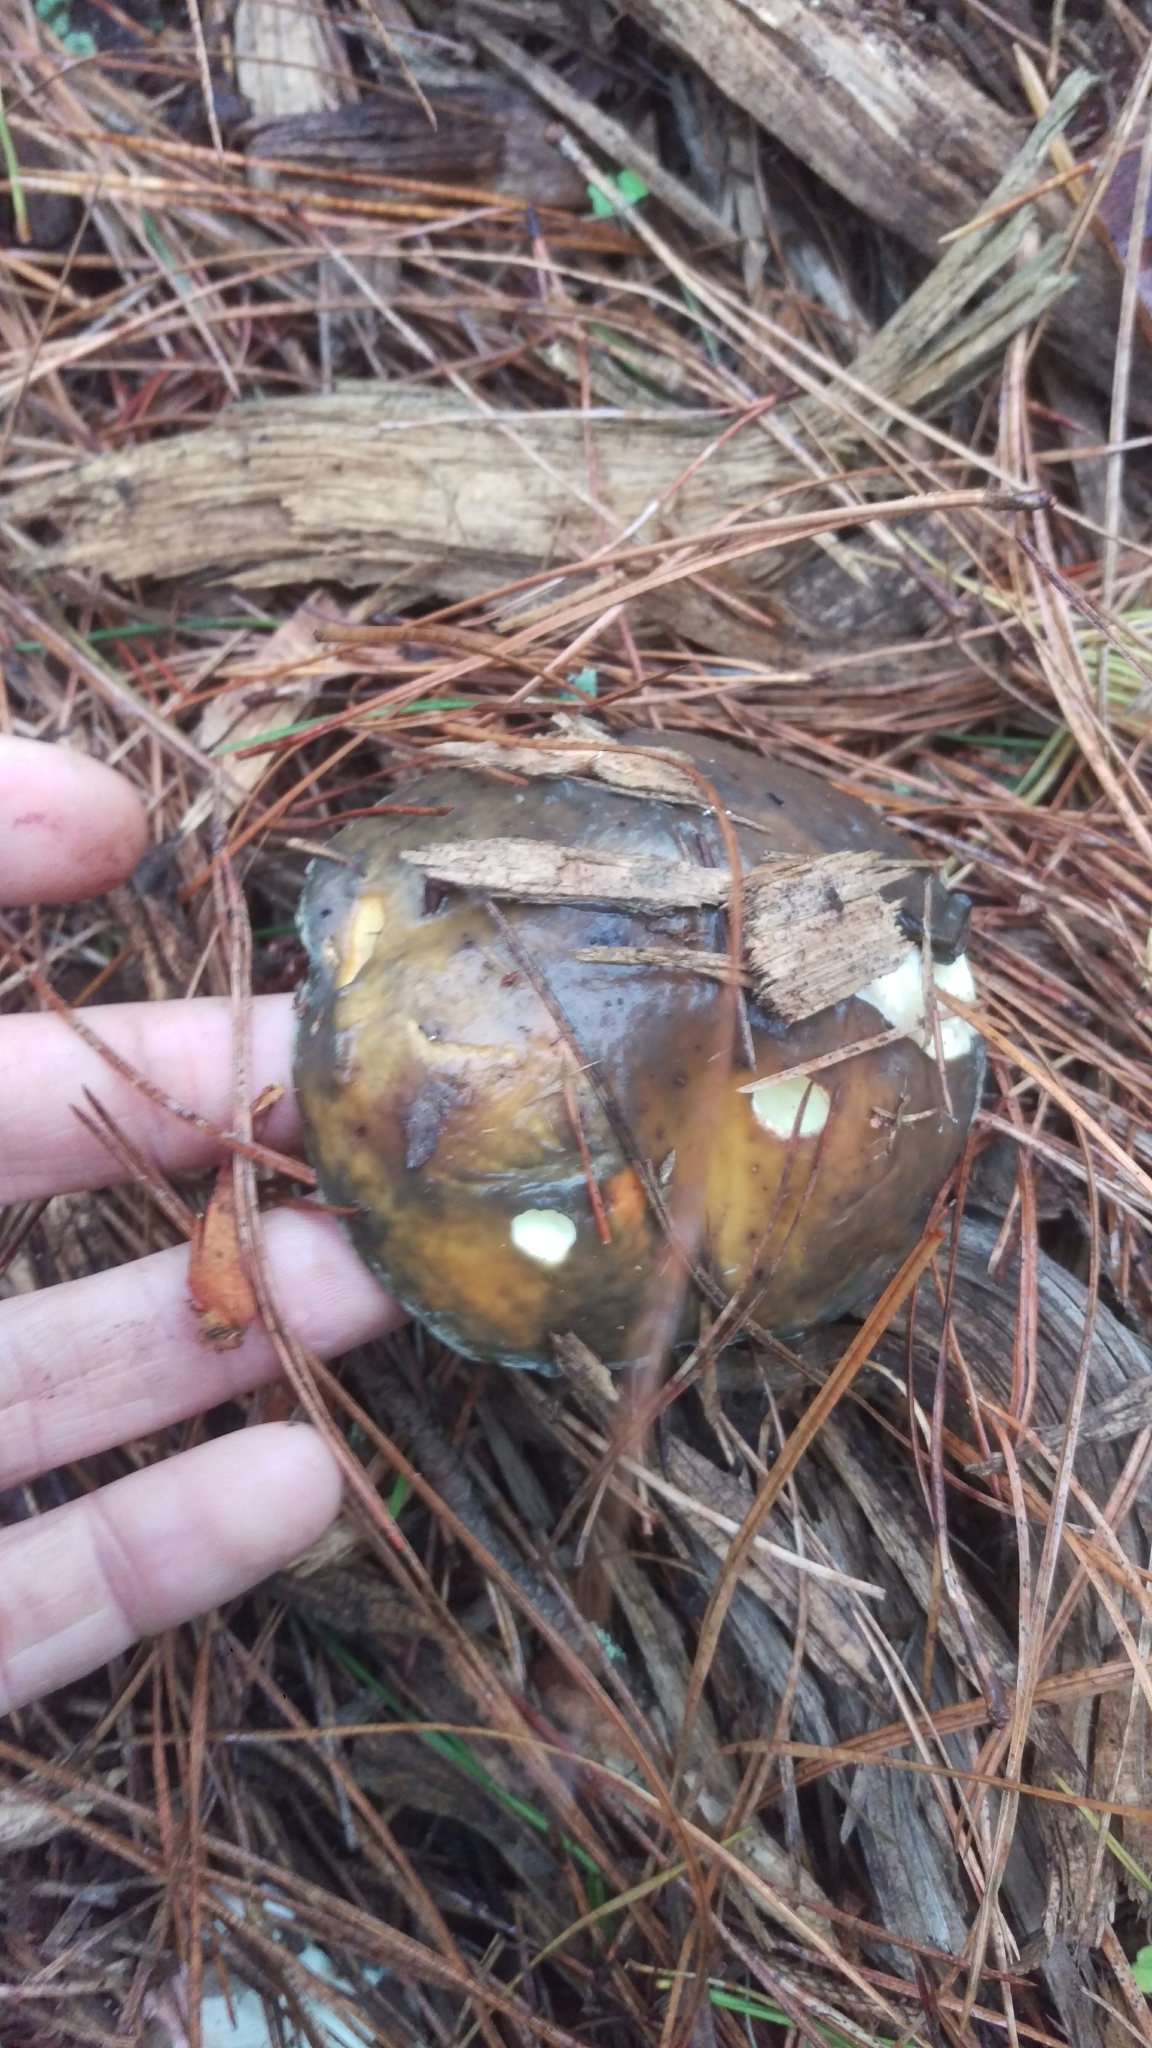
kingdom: Fungi
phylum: Basidiomycota
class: Agaricomycetes
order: Boletales
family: Suillaceae
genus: Suillus
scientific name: Suillus pungens
